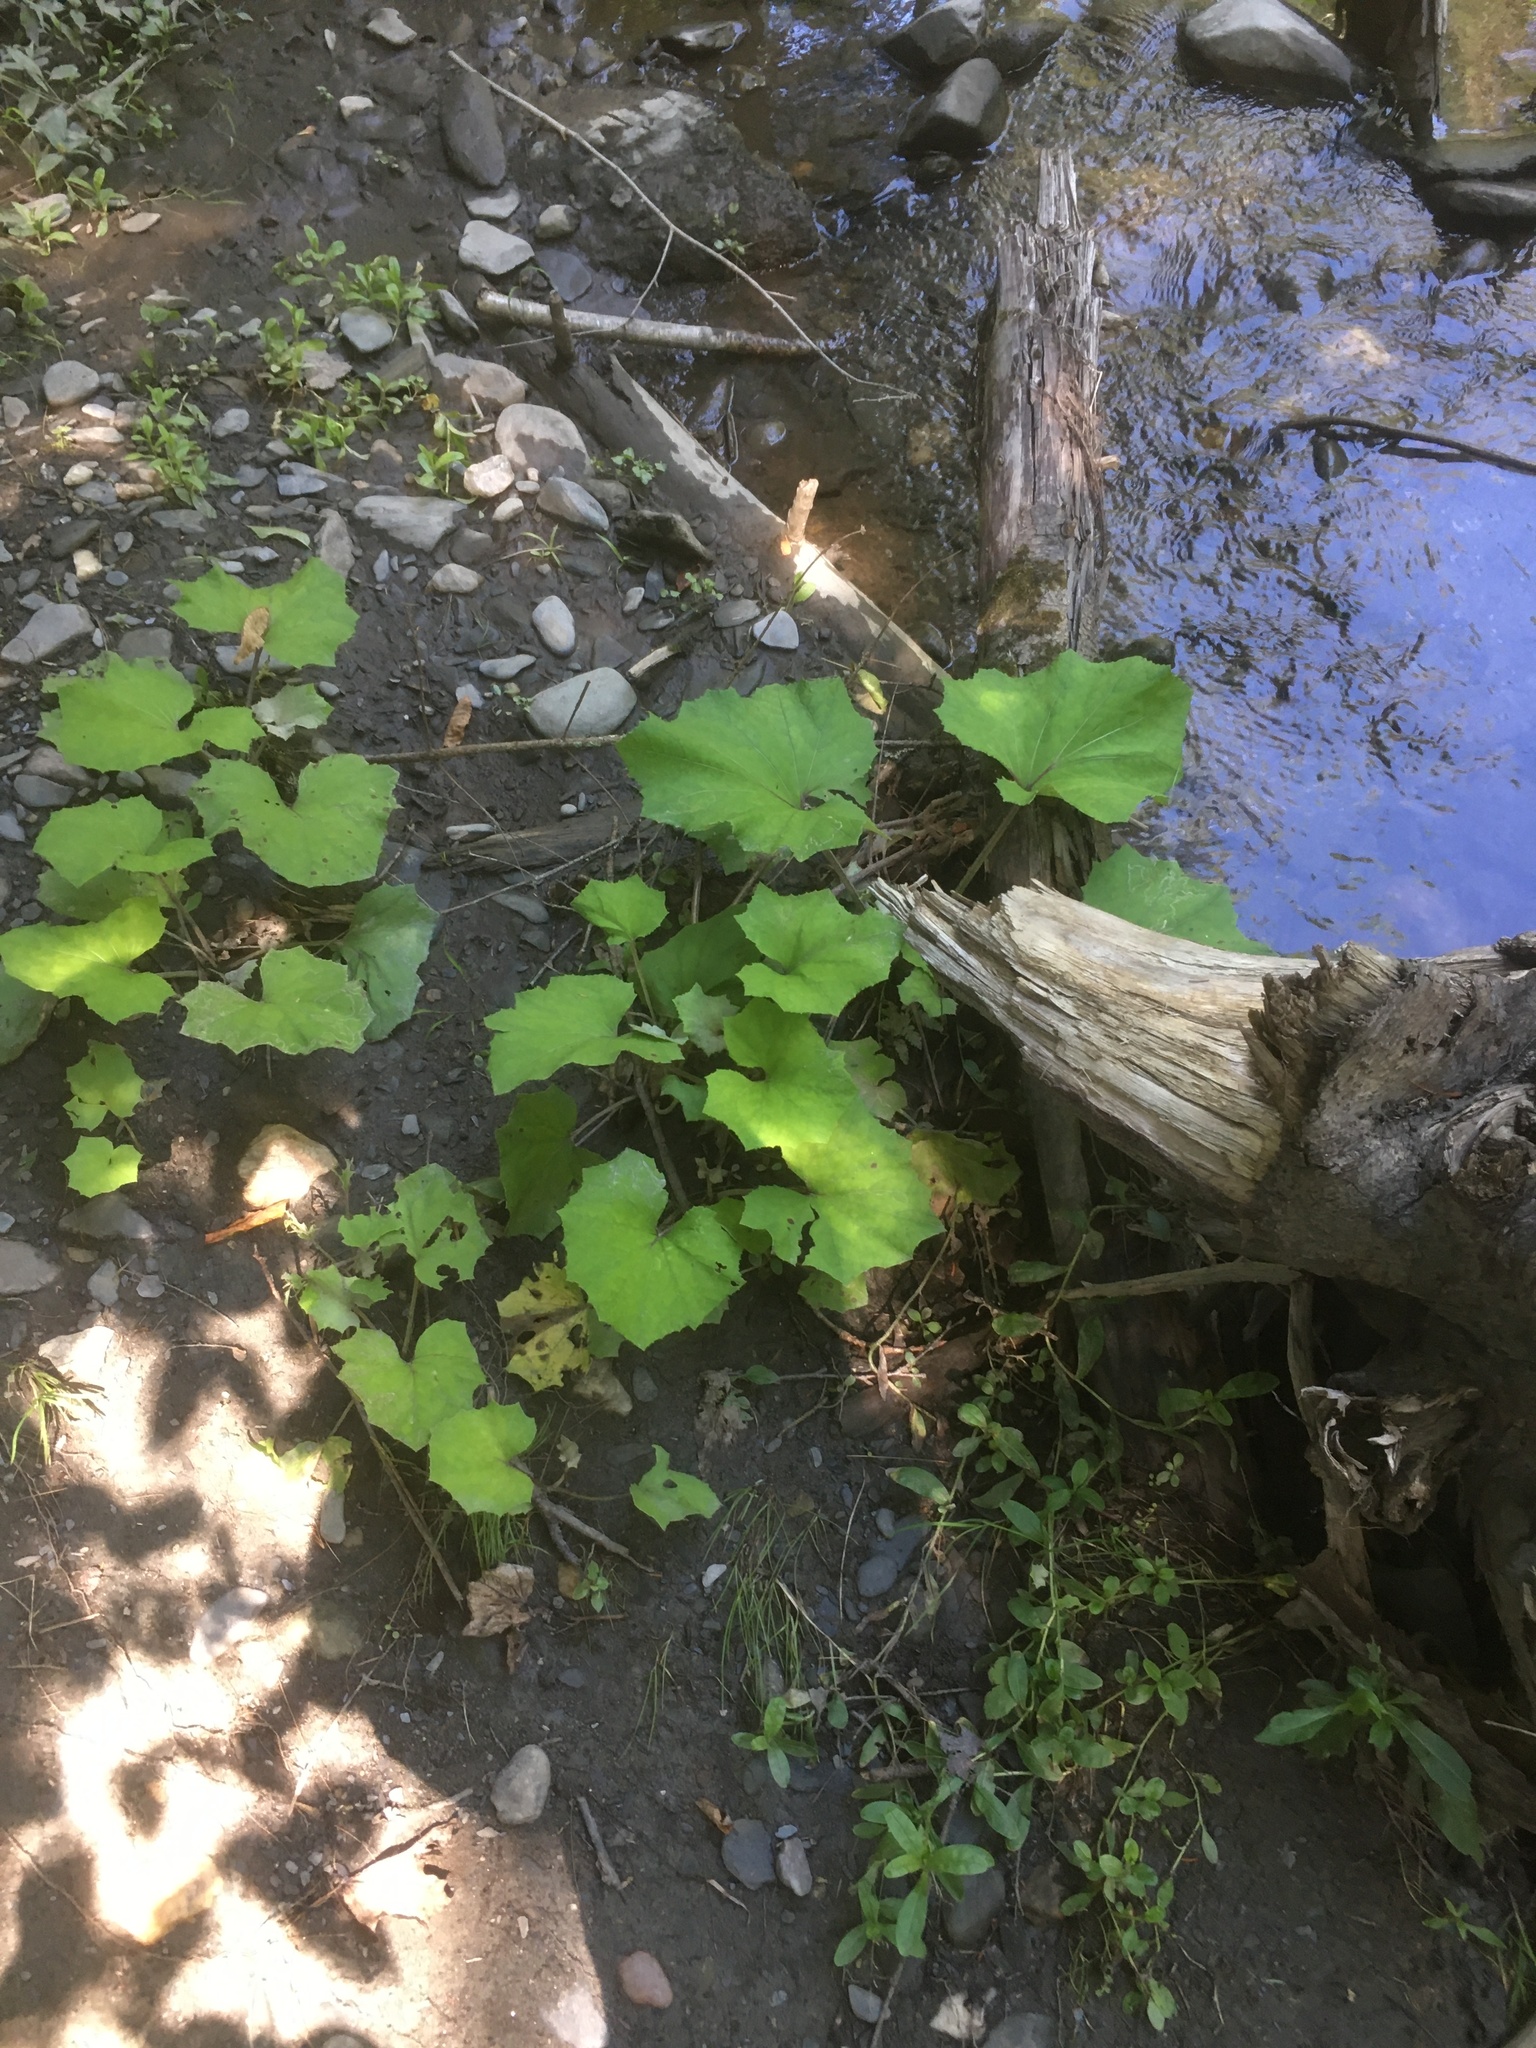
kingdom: Plantae
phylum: Tracheophyta
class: Magnoliopsida
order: Asterales
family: Asteraceae
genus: Tussilago
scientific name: Tussilago farfara
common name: Coltsfoot
